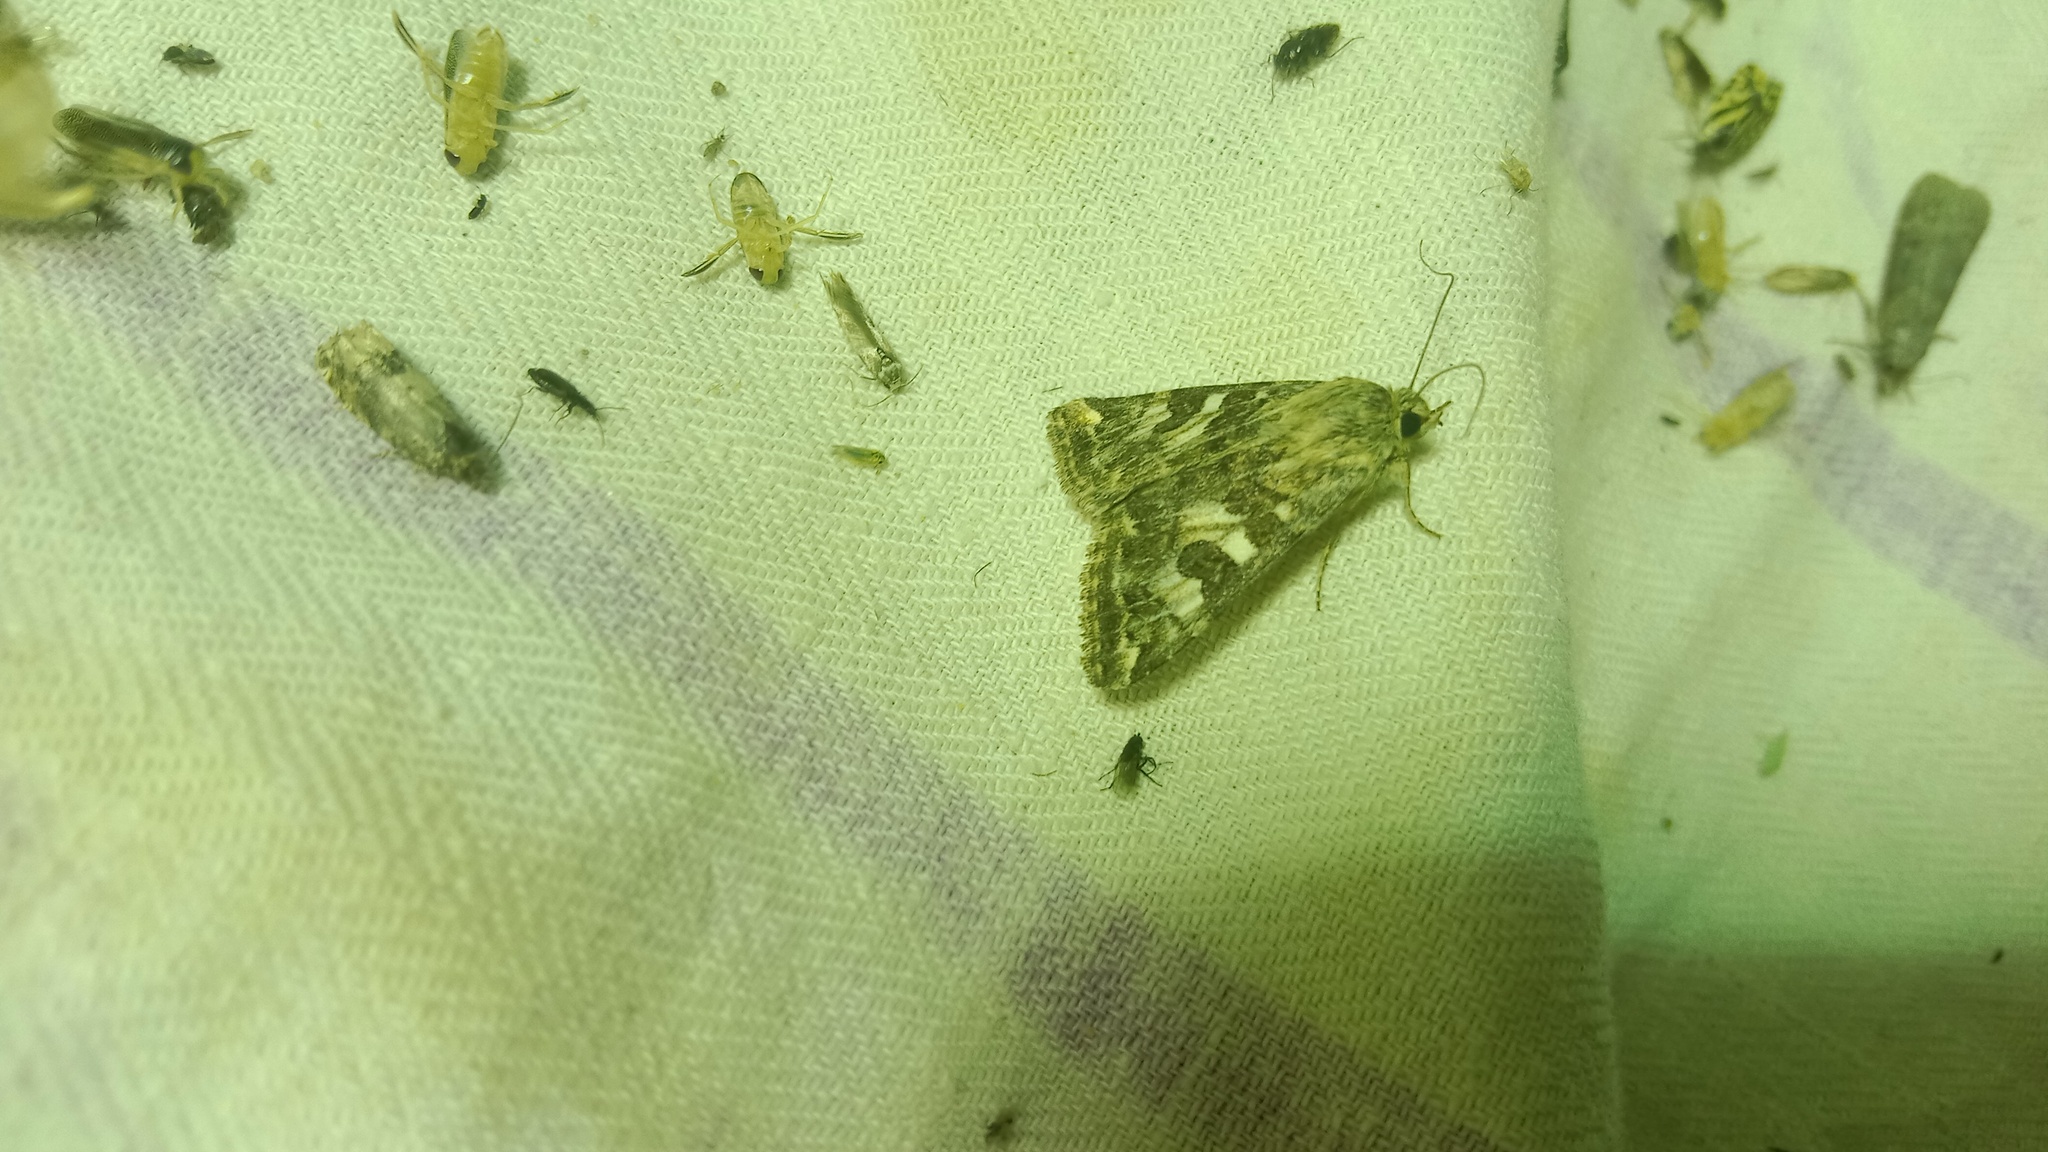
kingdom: Animalia
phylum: Arthropoda
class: Insecta
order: Lepidoptera
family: Noctuidae
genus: Protoschinia
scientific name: Protoschinia scutosa
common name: Spotted clover
